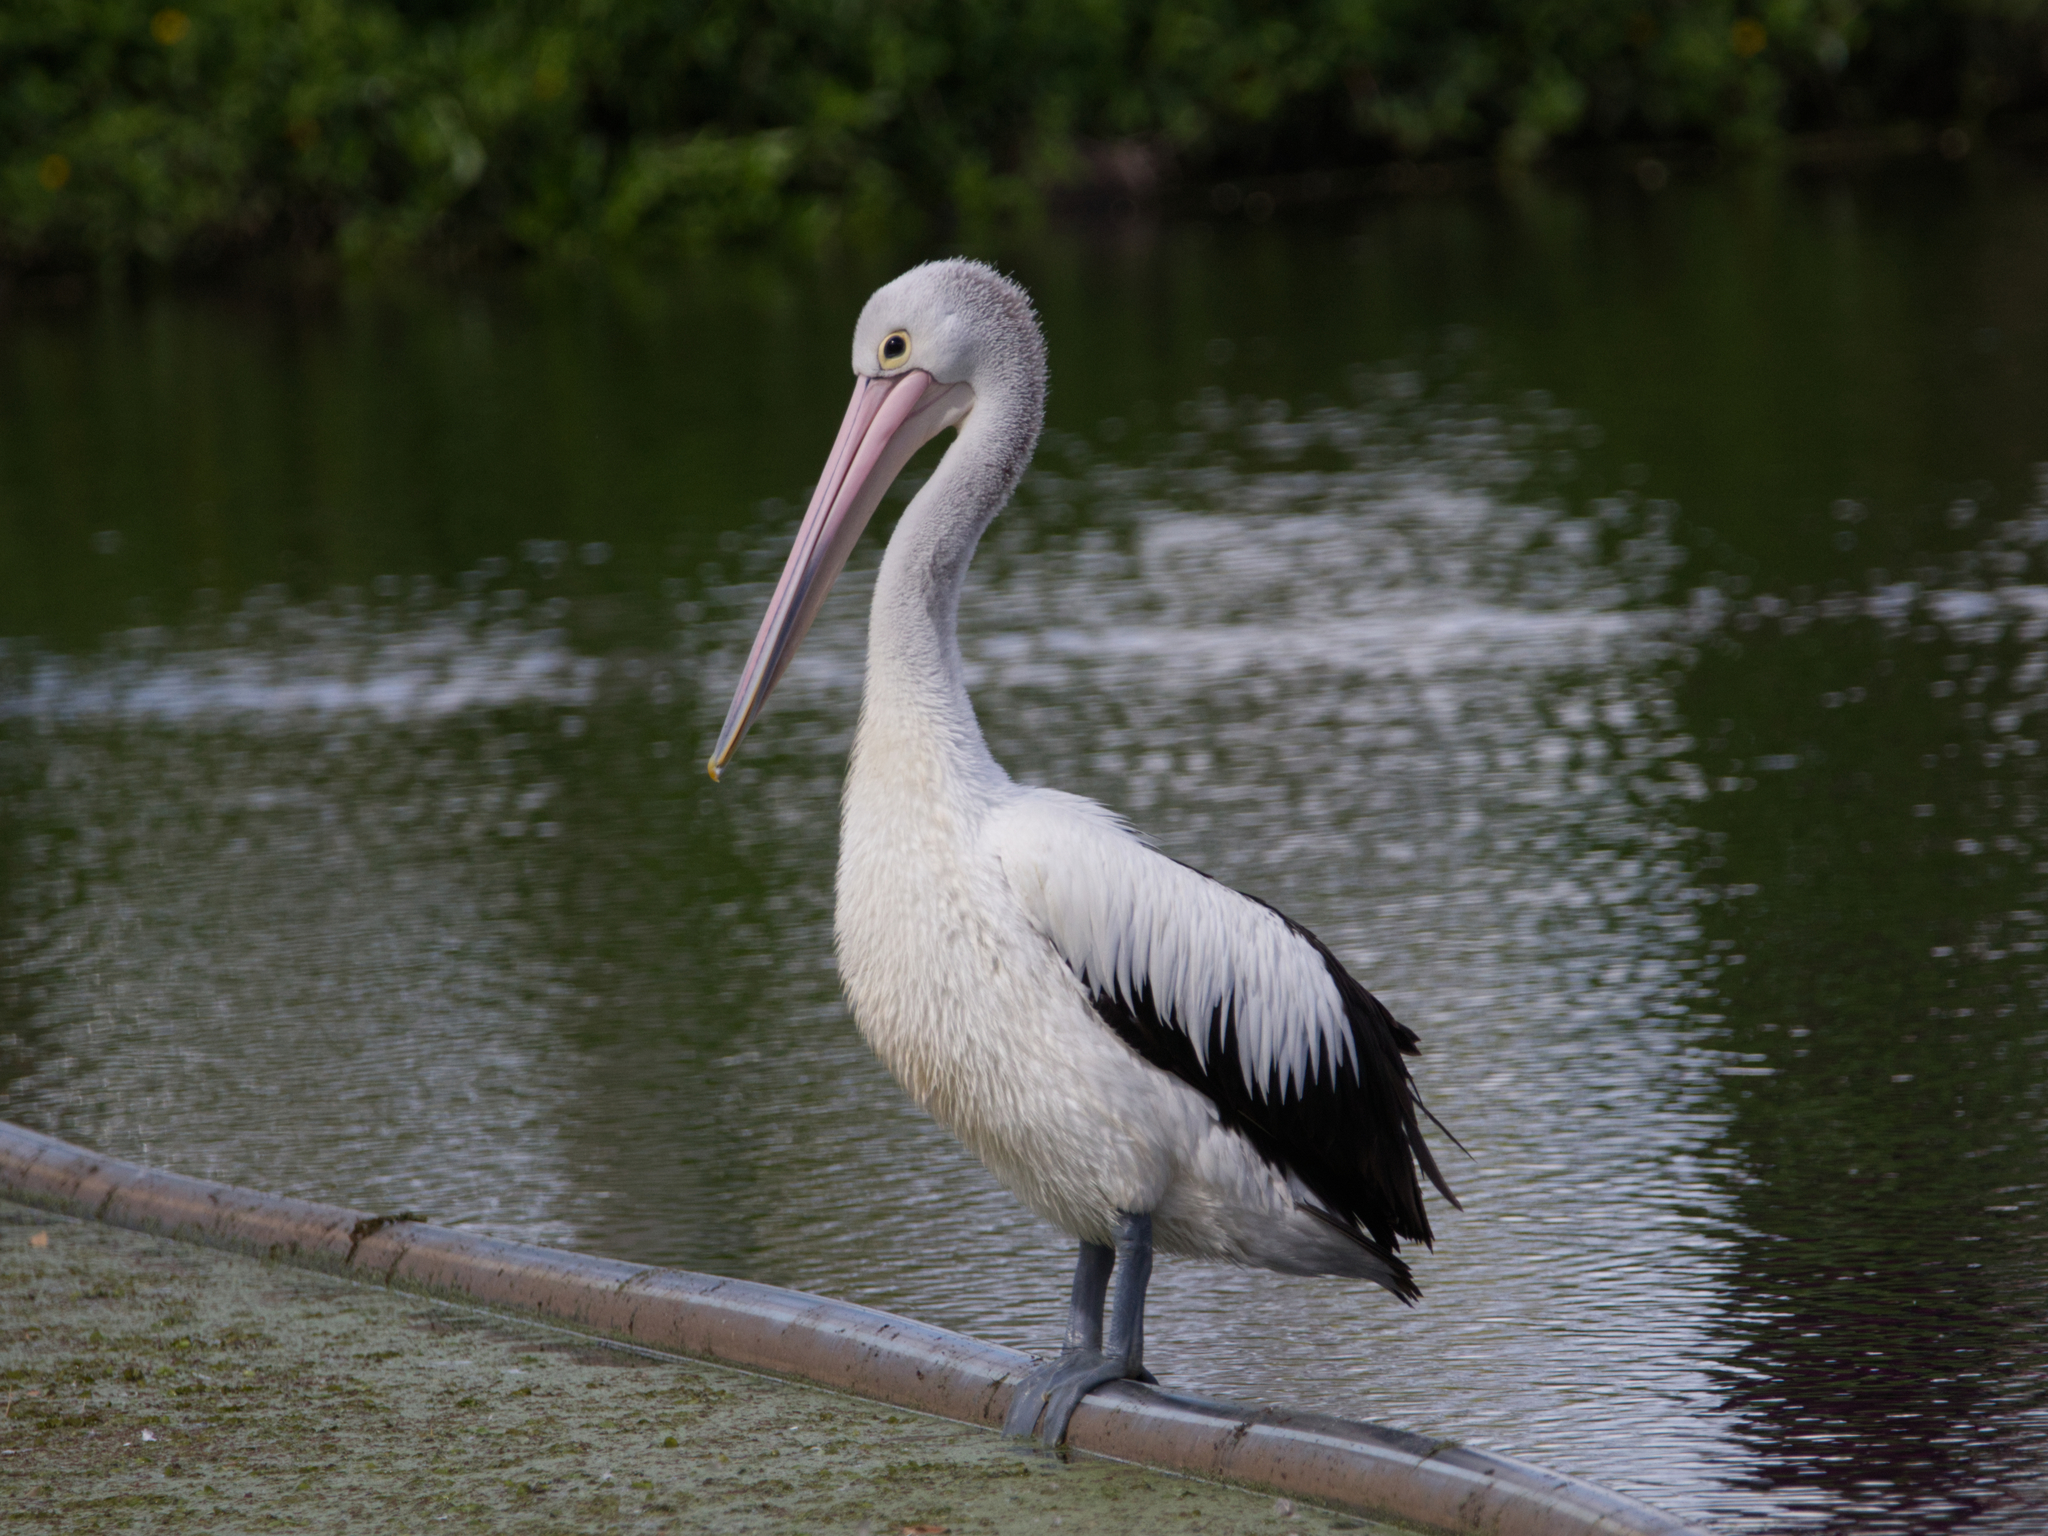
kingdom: Animalia
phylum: Chordata
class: Aves
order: Pelecaniformes
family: Pelecanidae
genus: Pelecanus
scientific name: Pelecanus conspicillatus
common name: Australian pelican
